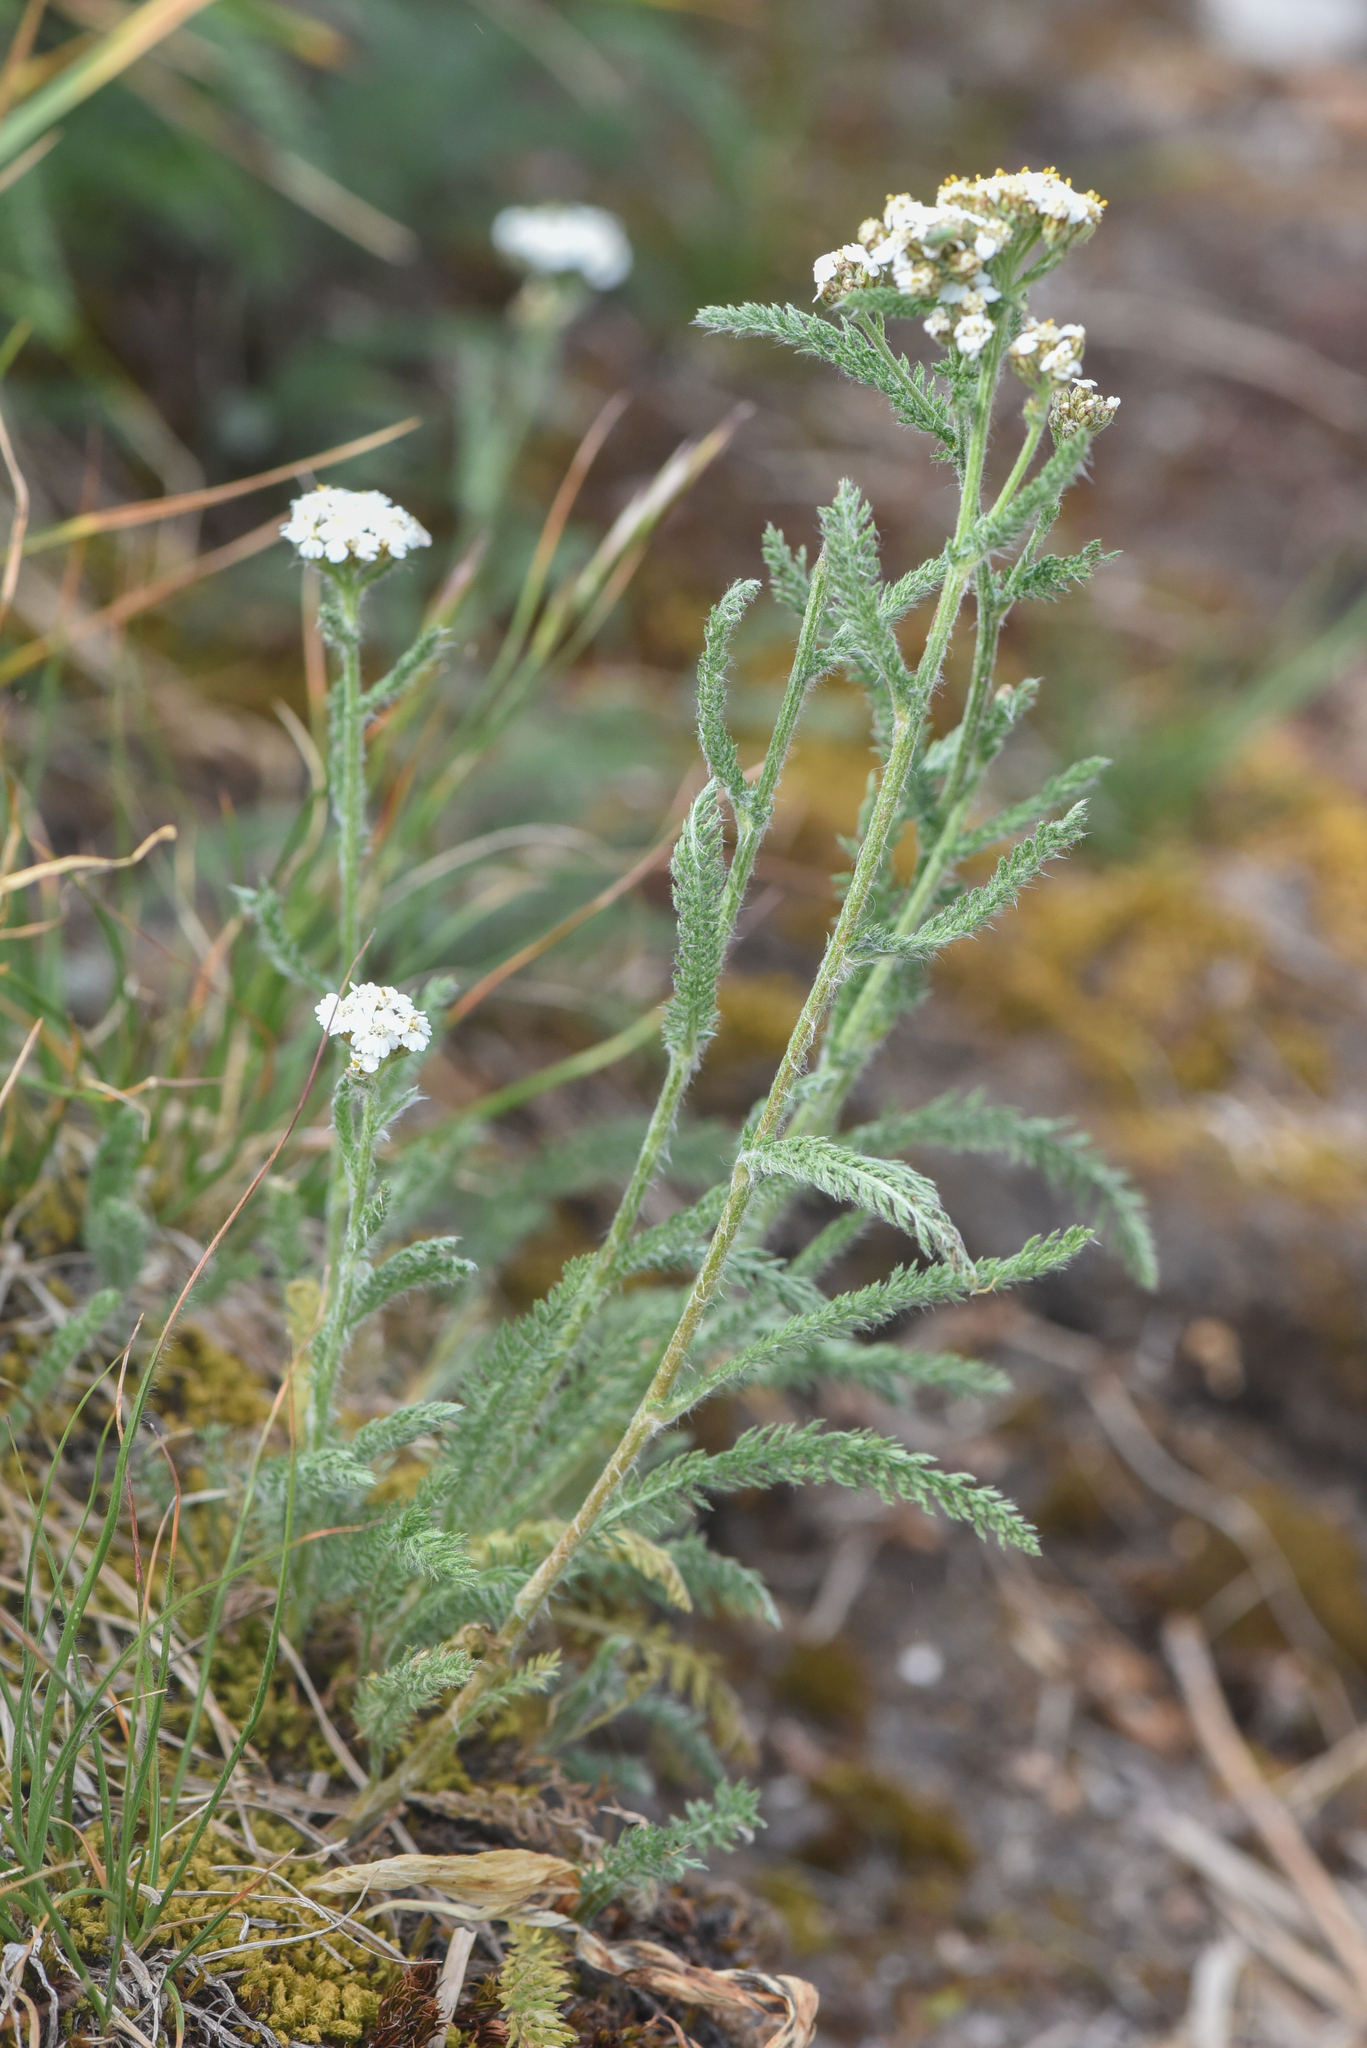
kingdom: Plantae
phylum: Tracheophyta
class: Magnoliopsida
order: Asterales
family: Asteraceae
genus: Achillea
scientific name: Achillea millefolium
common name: Yarrow
